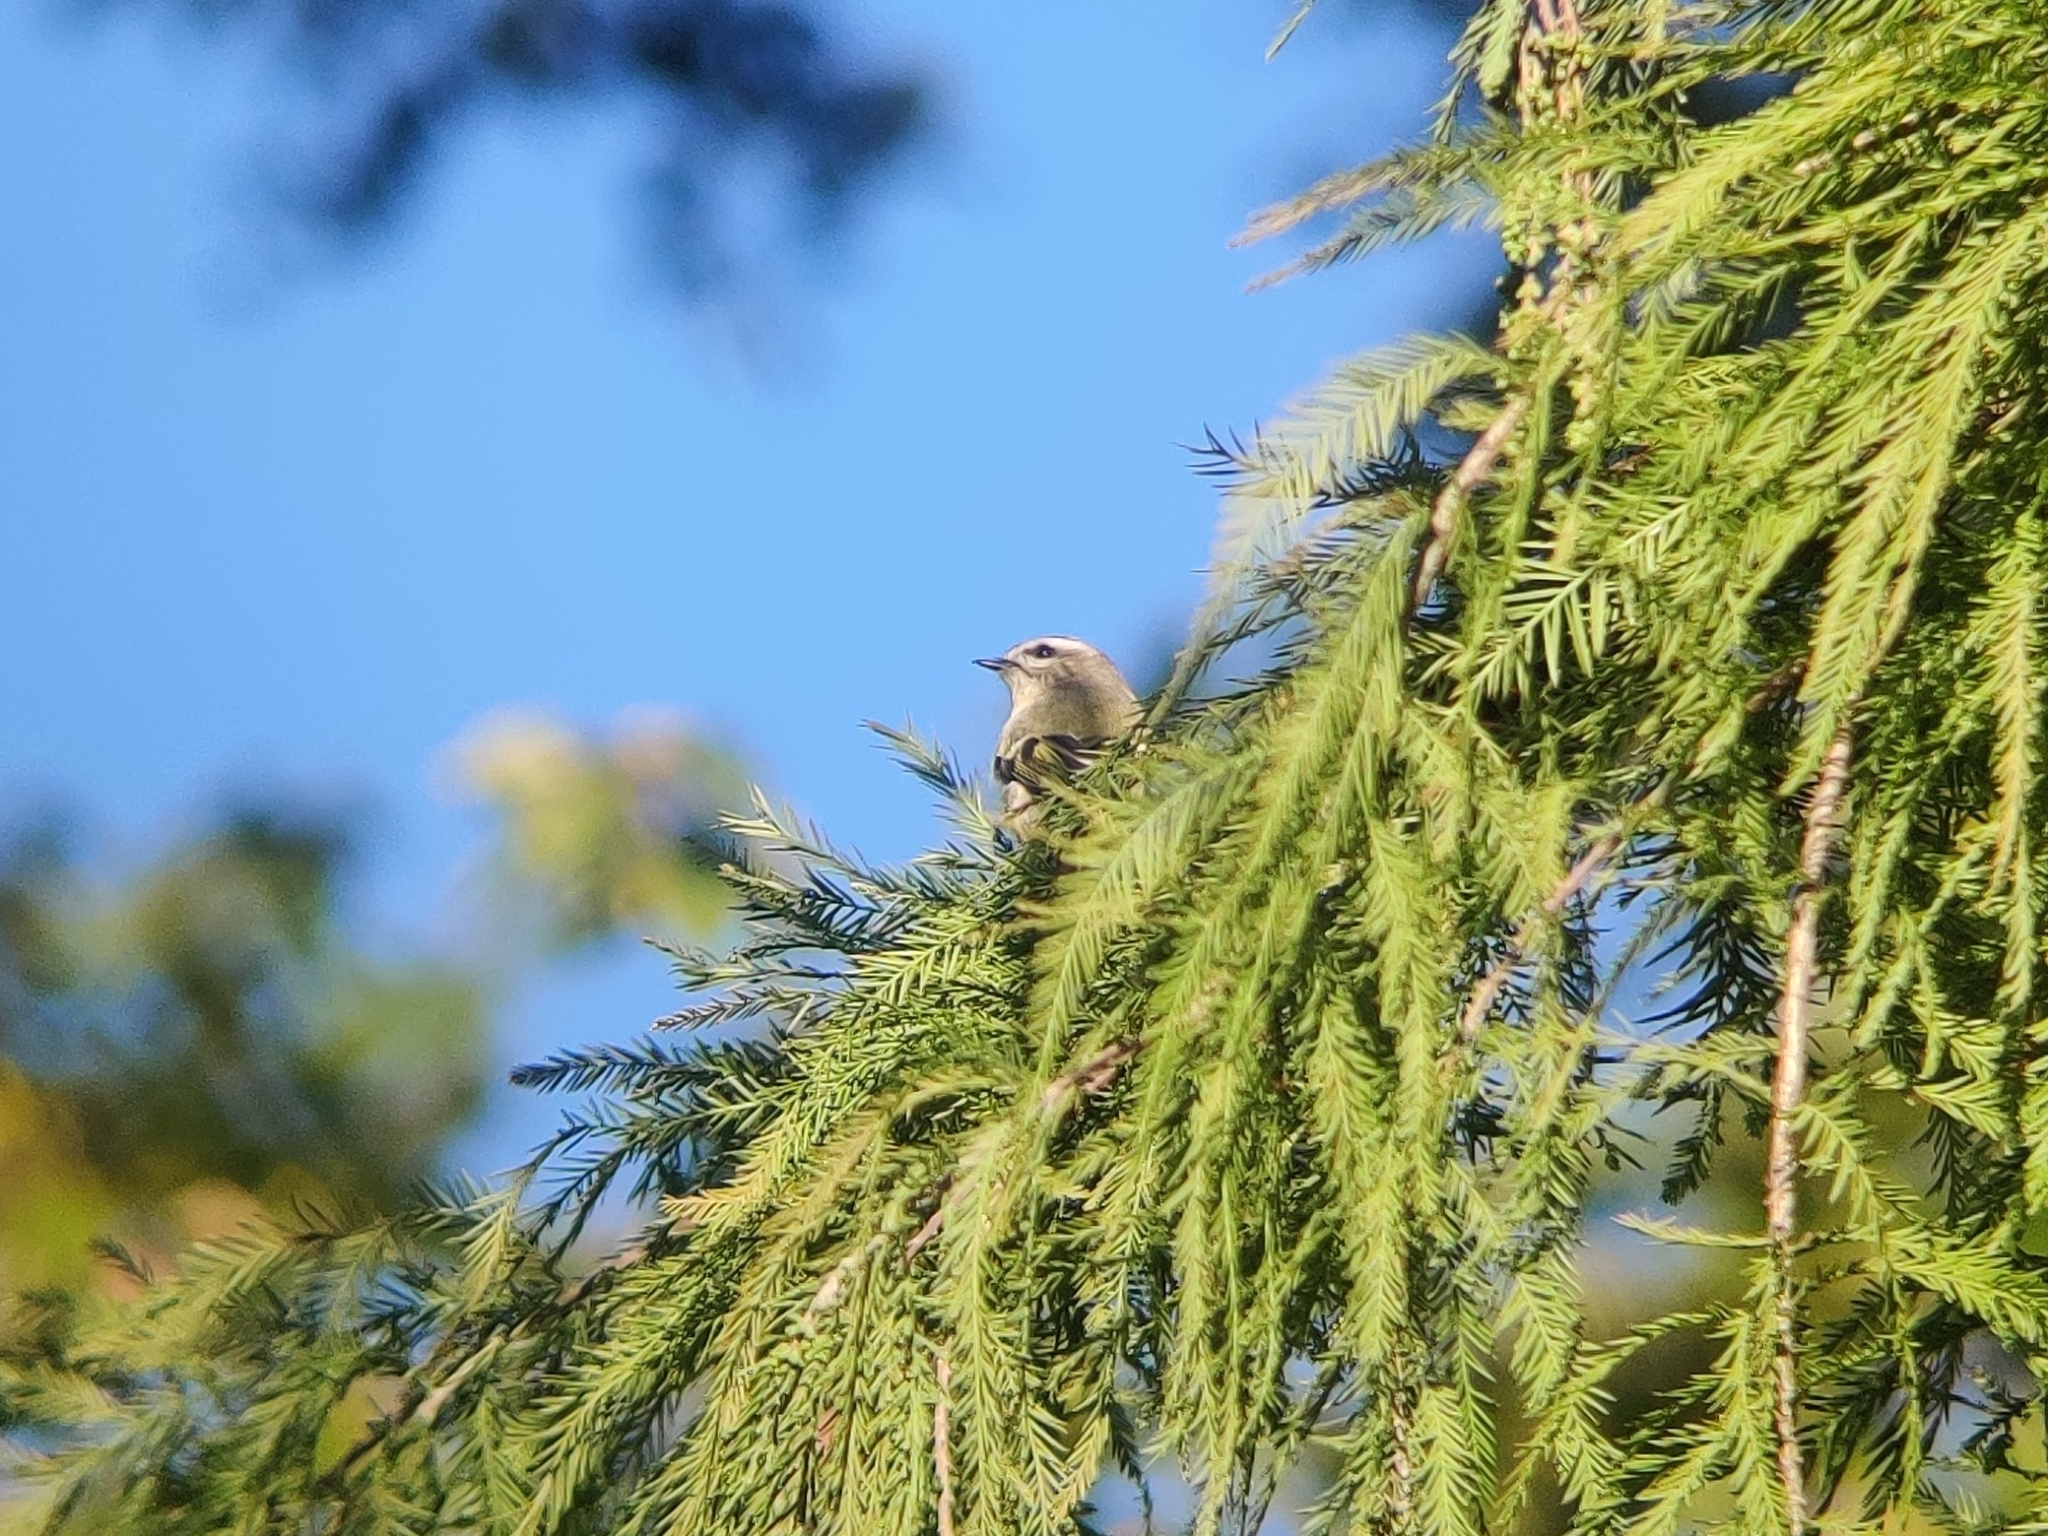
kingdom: Animalia
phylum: Chordata
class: Aves
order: Passeriformes
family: Regulidae
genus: Regulus
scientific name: Regulus satrapa
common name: Golden-crowned kinglet
